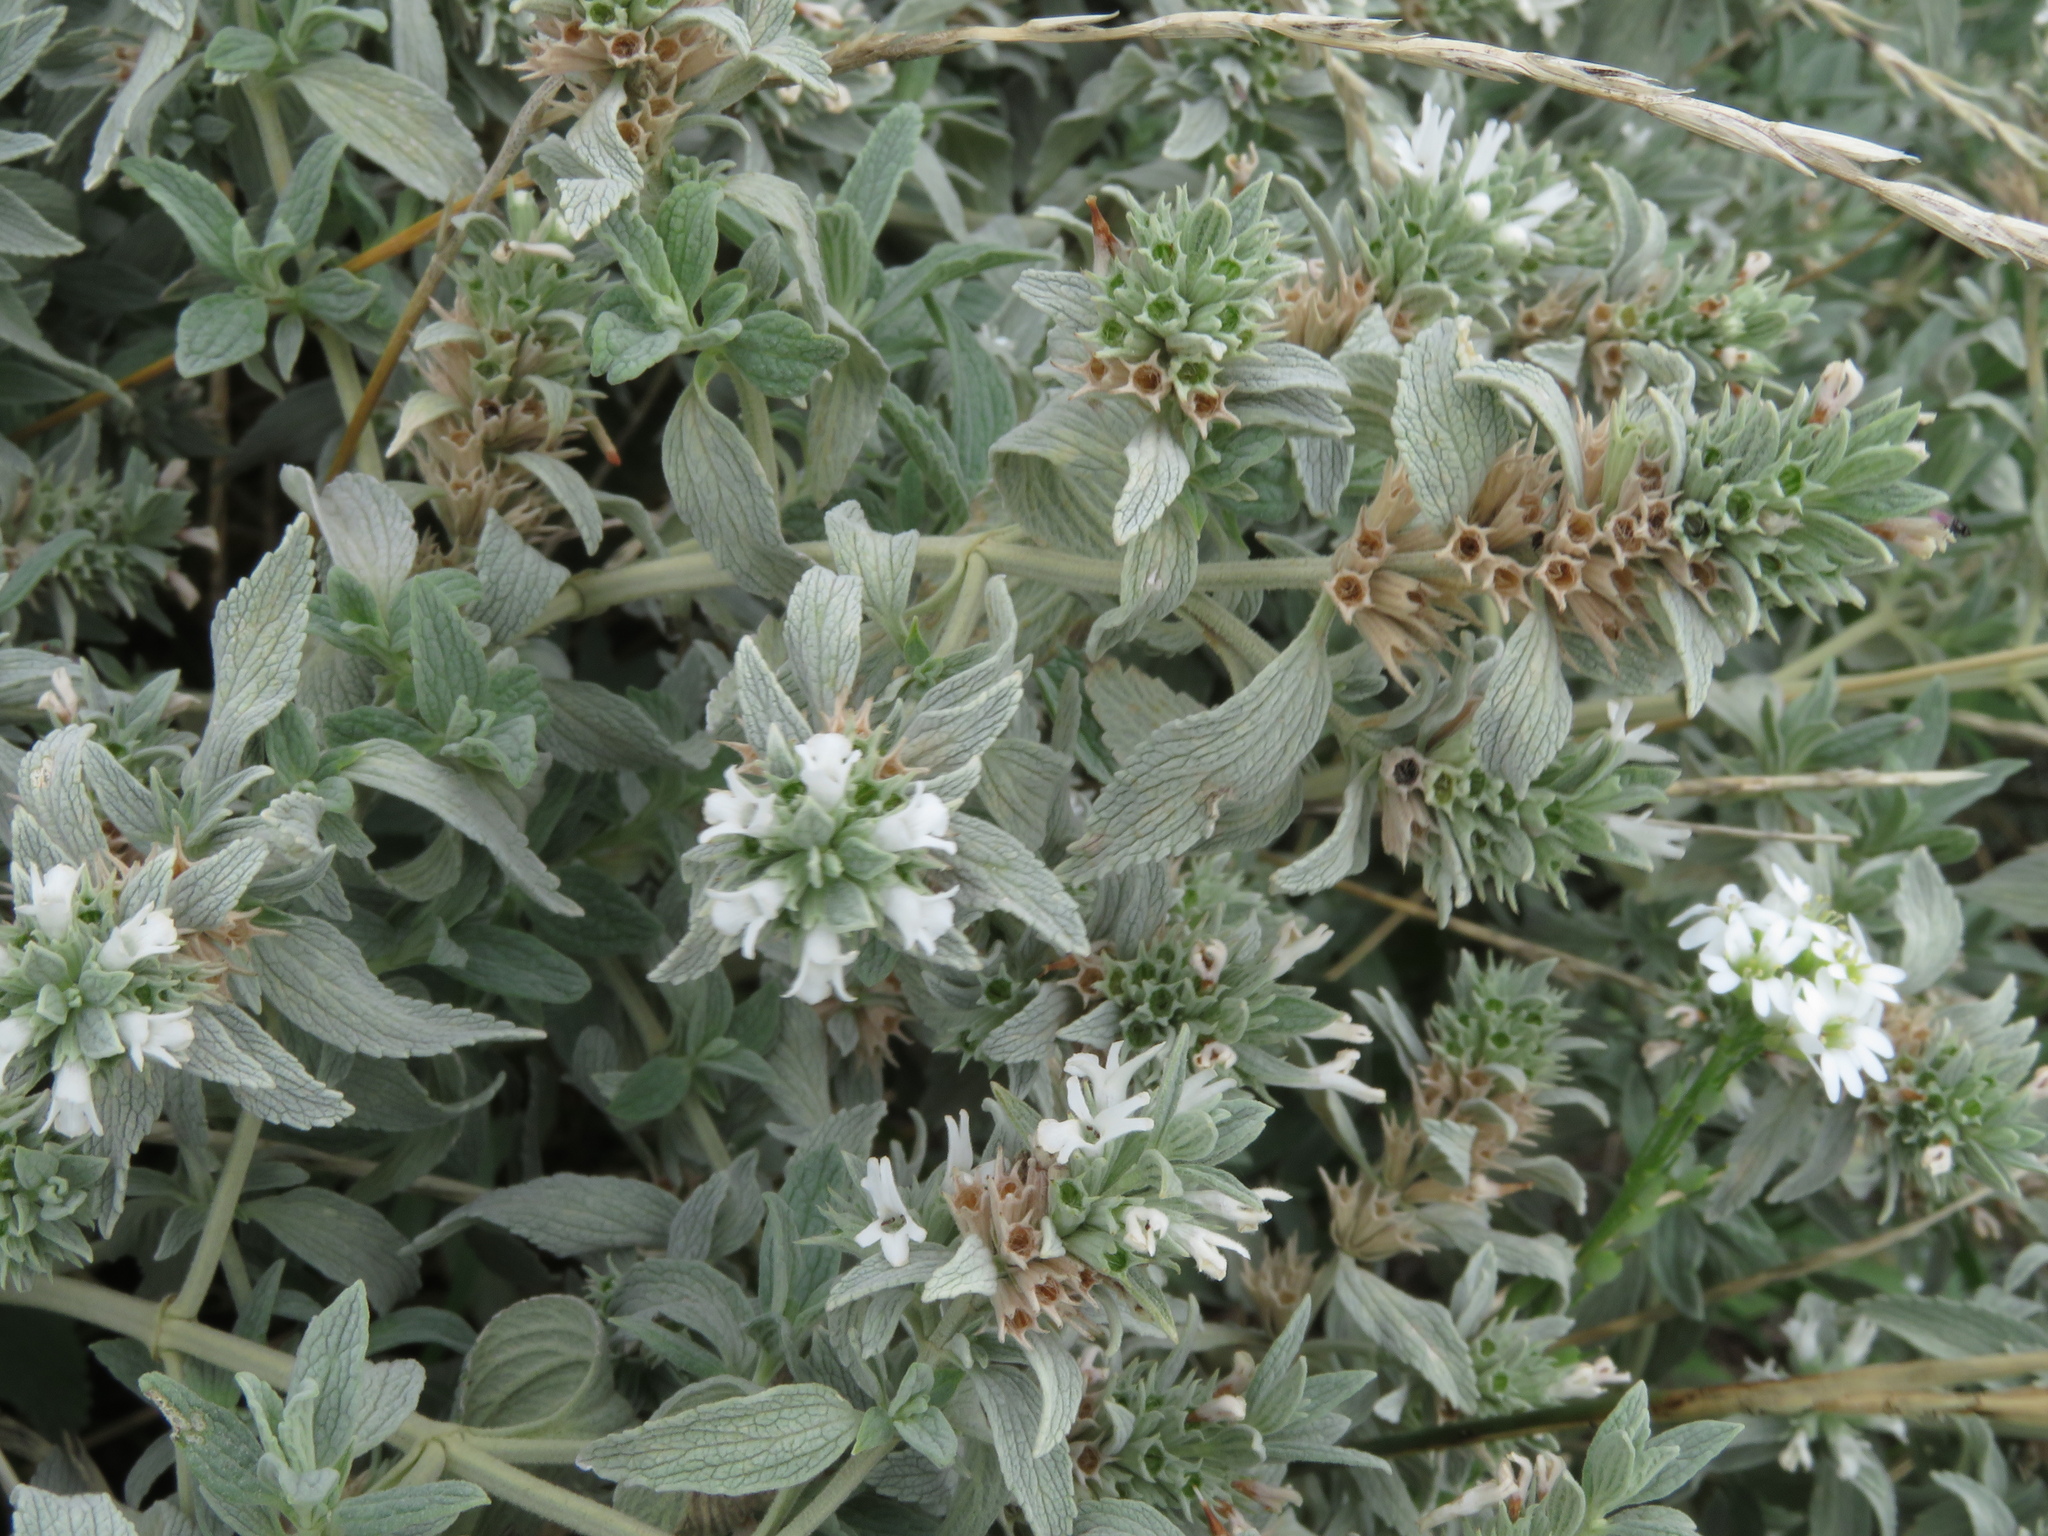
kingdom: Plantae
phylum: Tracheophyta
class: Magnoliopsida
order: Lamiales
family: Lamiaceae
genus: Marrubium
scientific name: Marrubium peregrinum
